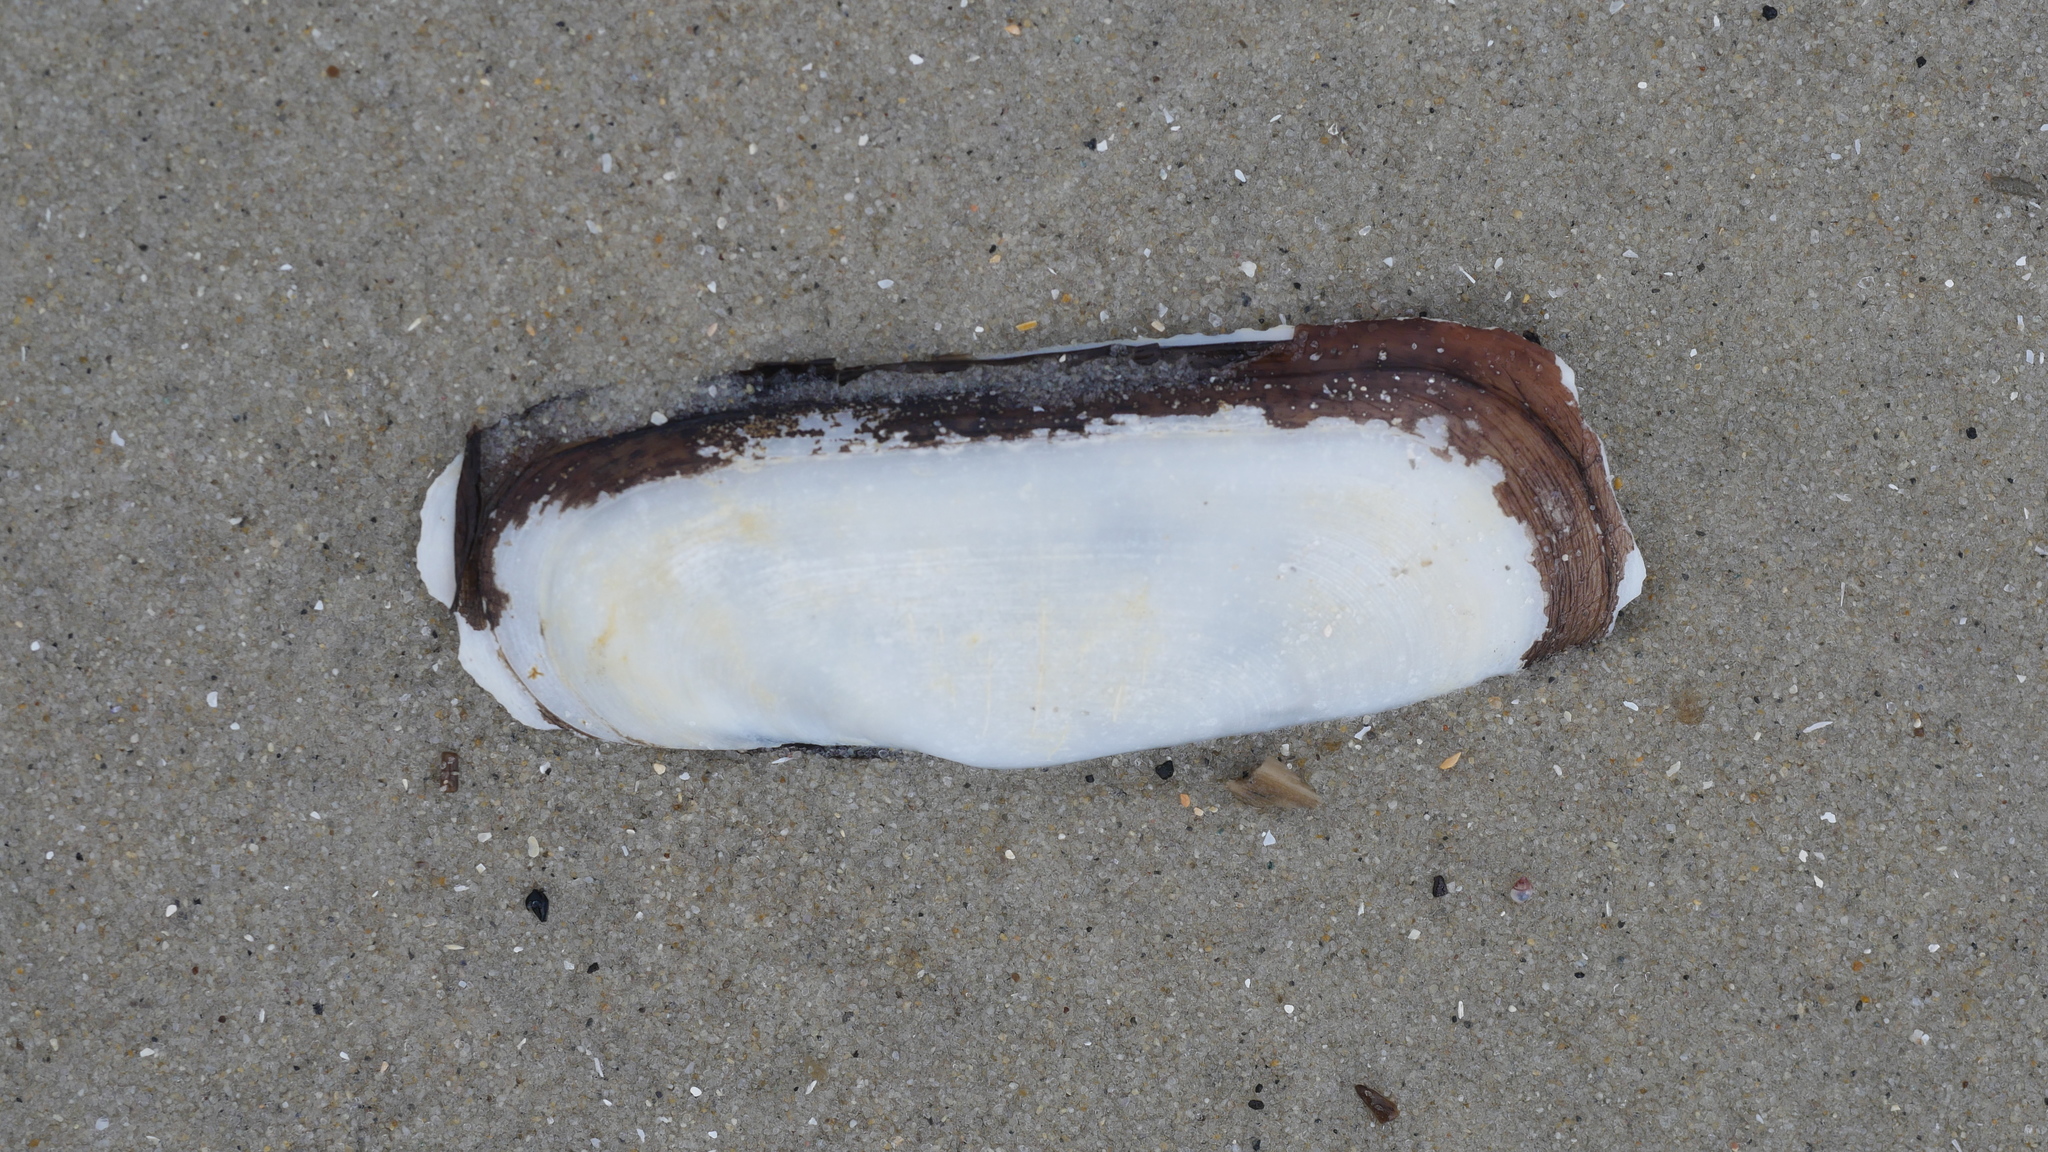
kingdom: Animalia
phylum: Mollusca
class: Bivalvia
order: Cardiida
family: Solecurtidae
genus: Tagelus
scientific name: Tagelus plebeius
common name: Stout tagelus
